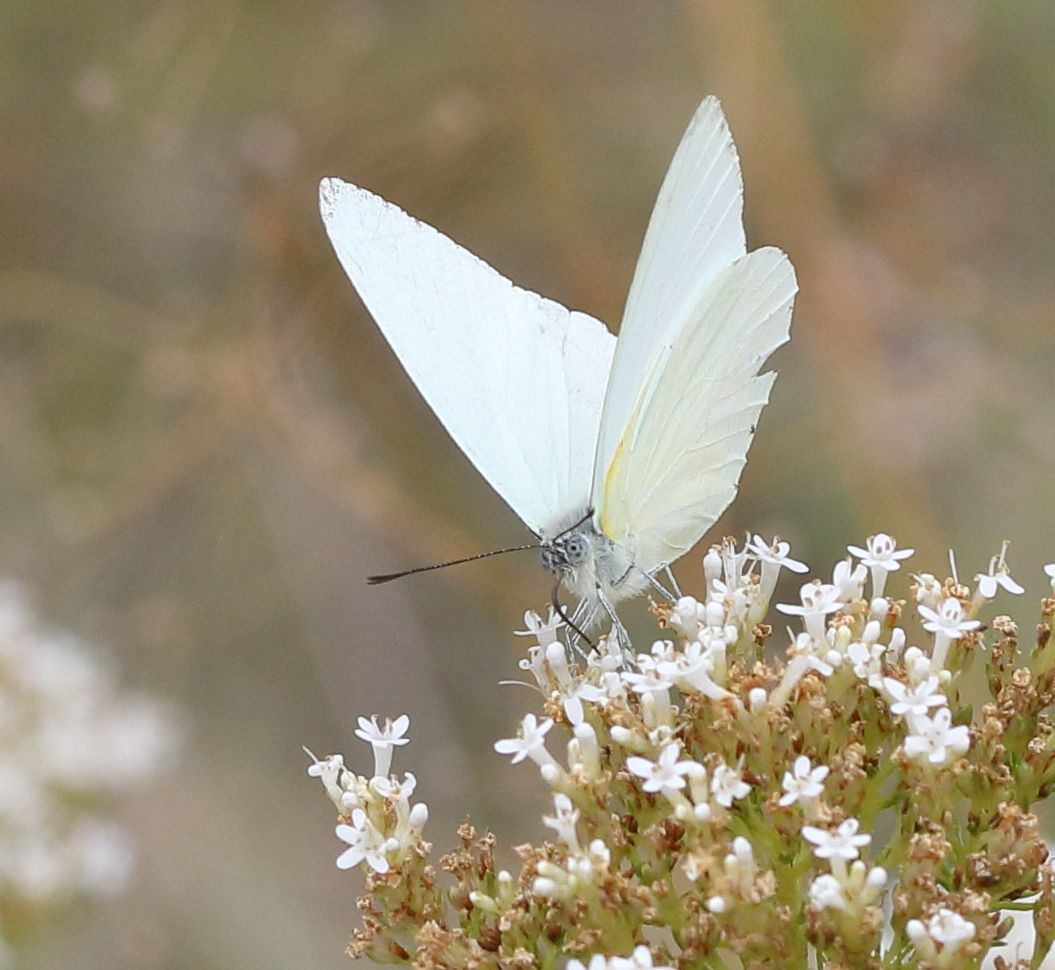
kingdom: Animalia
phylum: Arthropoda
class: Insecta
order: Lepidoptera
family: Pieridae
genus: Dixeia
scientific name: Dixeia pigea
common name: Ant-heap small white
